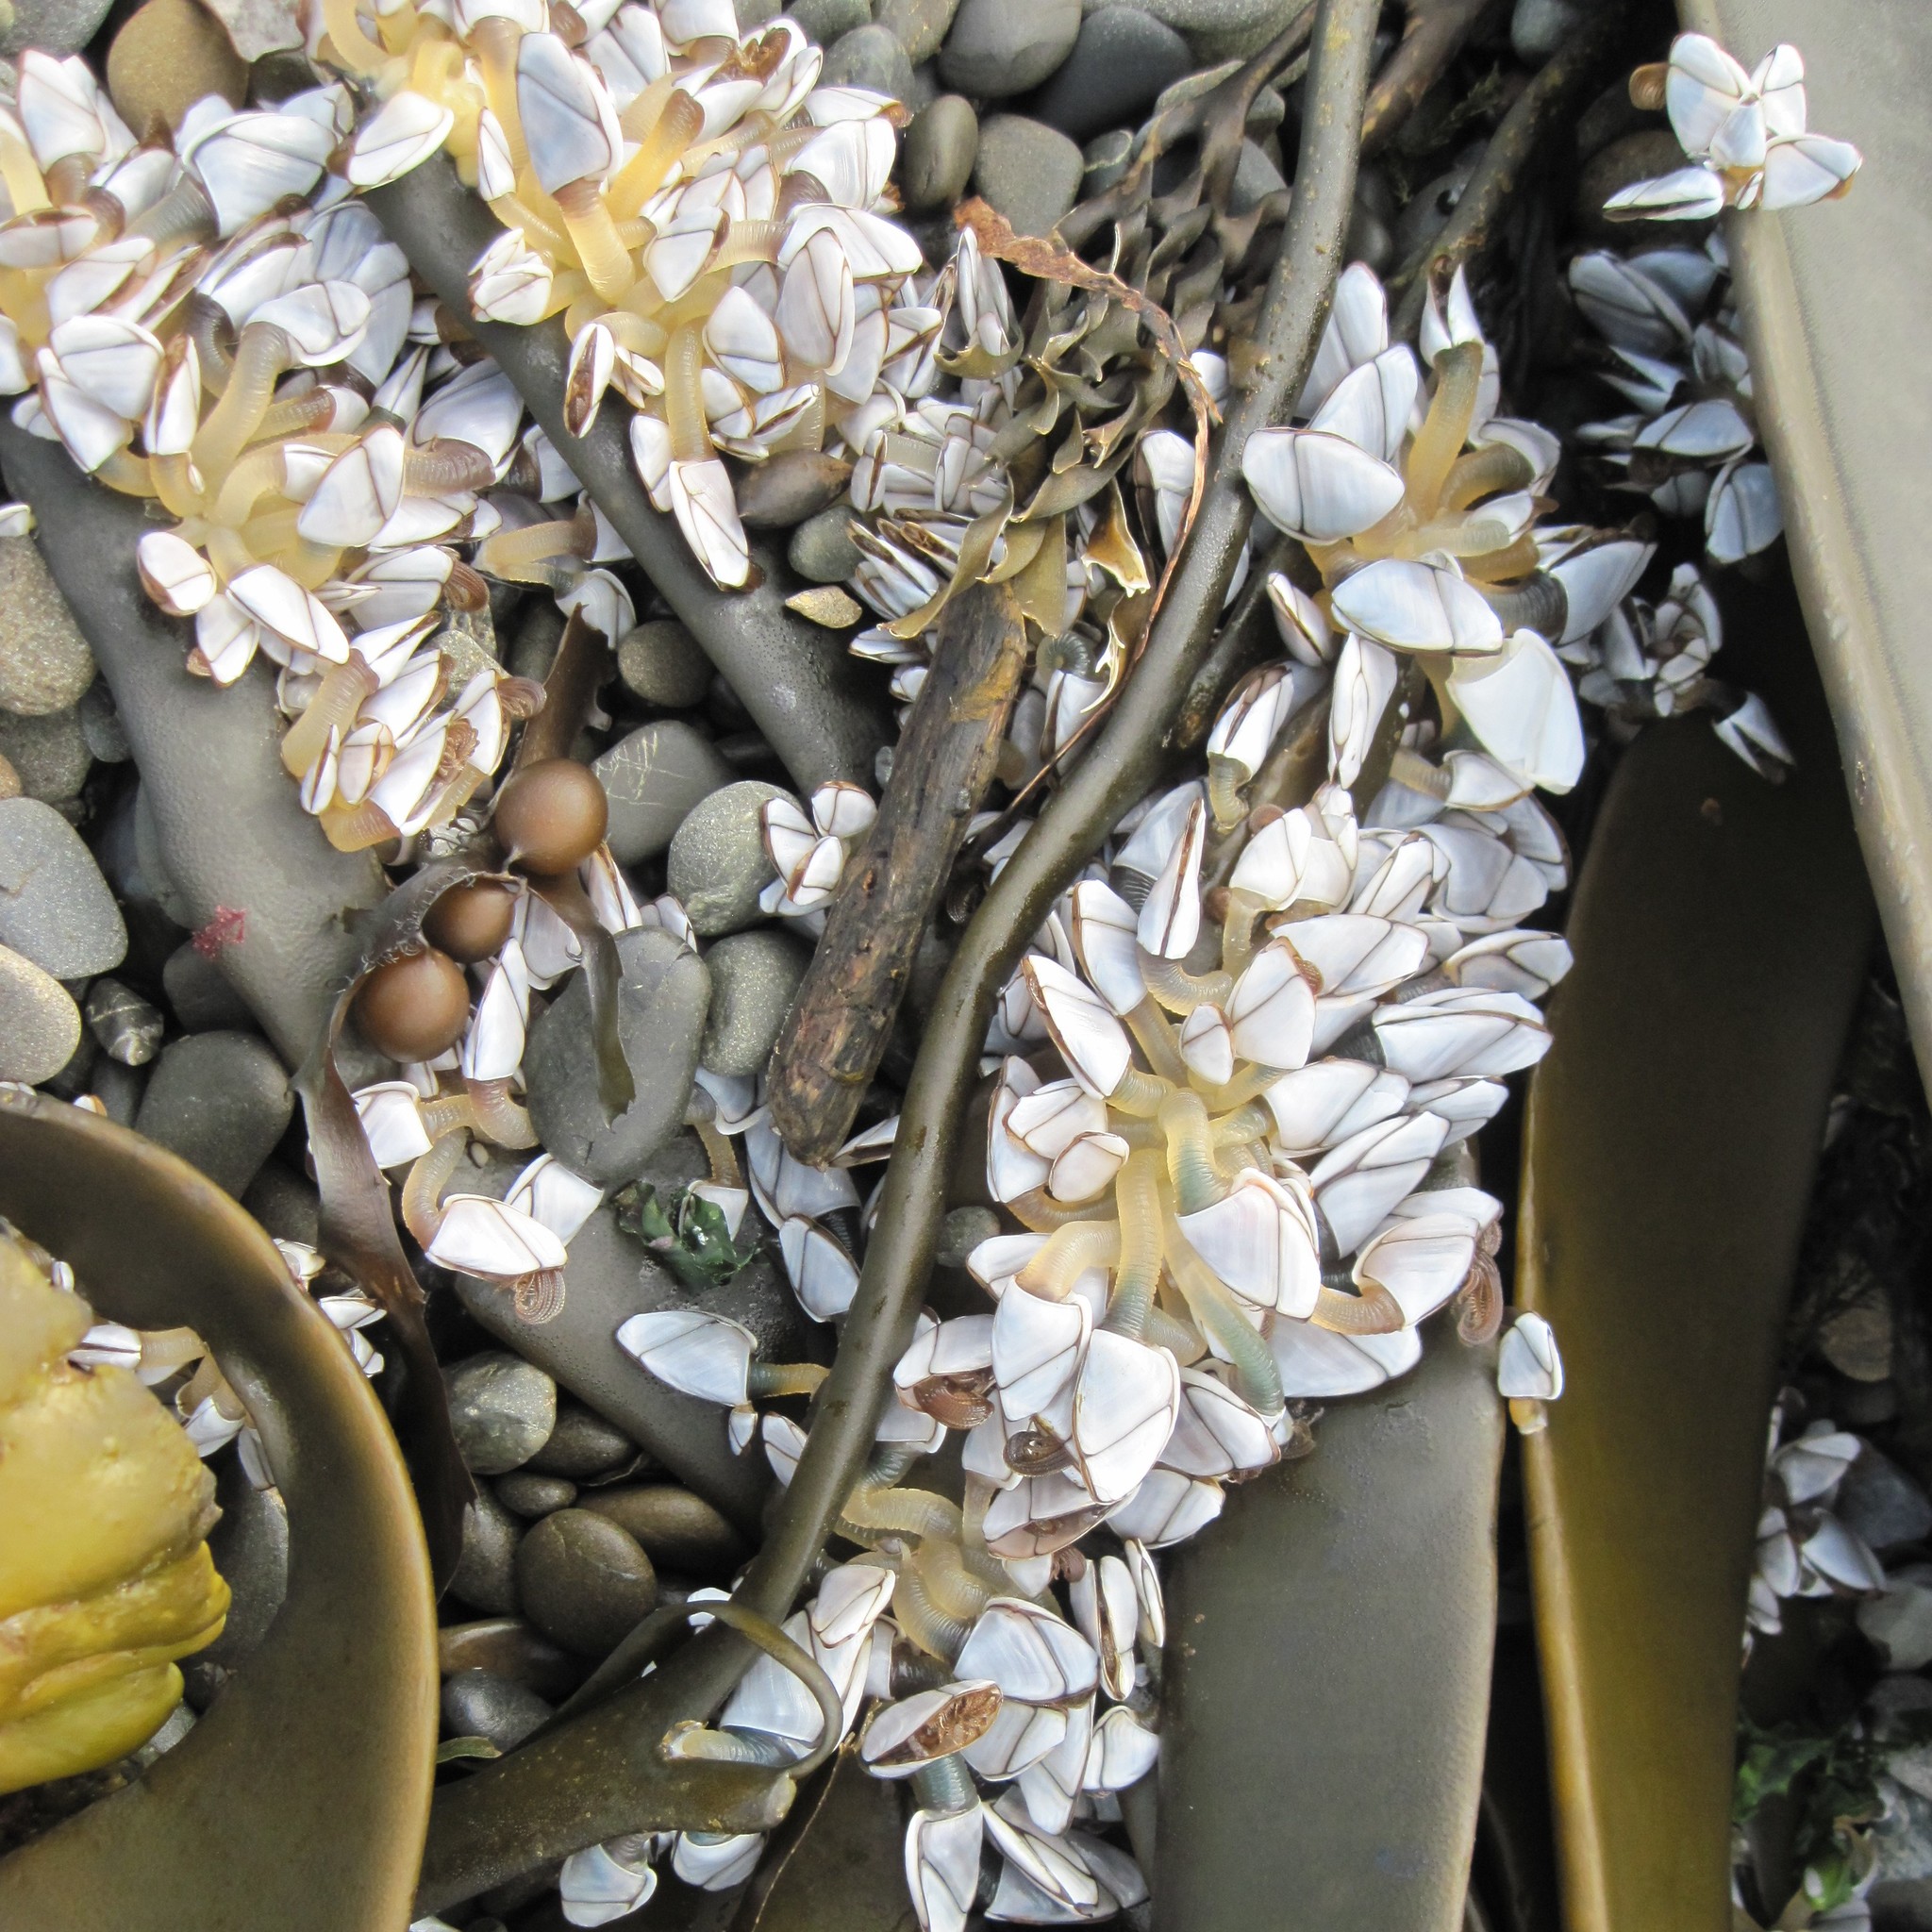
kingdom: Animalia
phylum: Arthropoda
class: Maxillopoda
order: Pedunculata
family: Lepadidae
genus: Lepas
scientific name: Lepas australis
